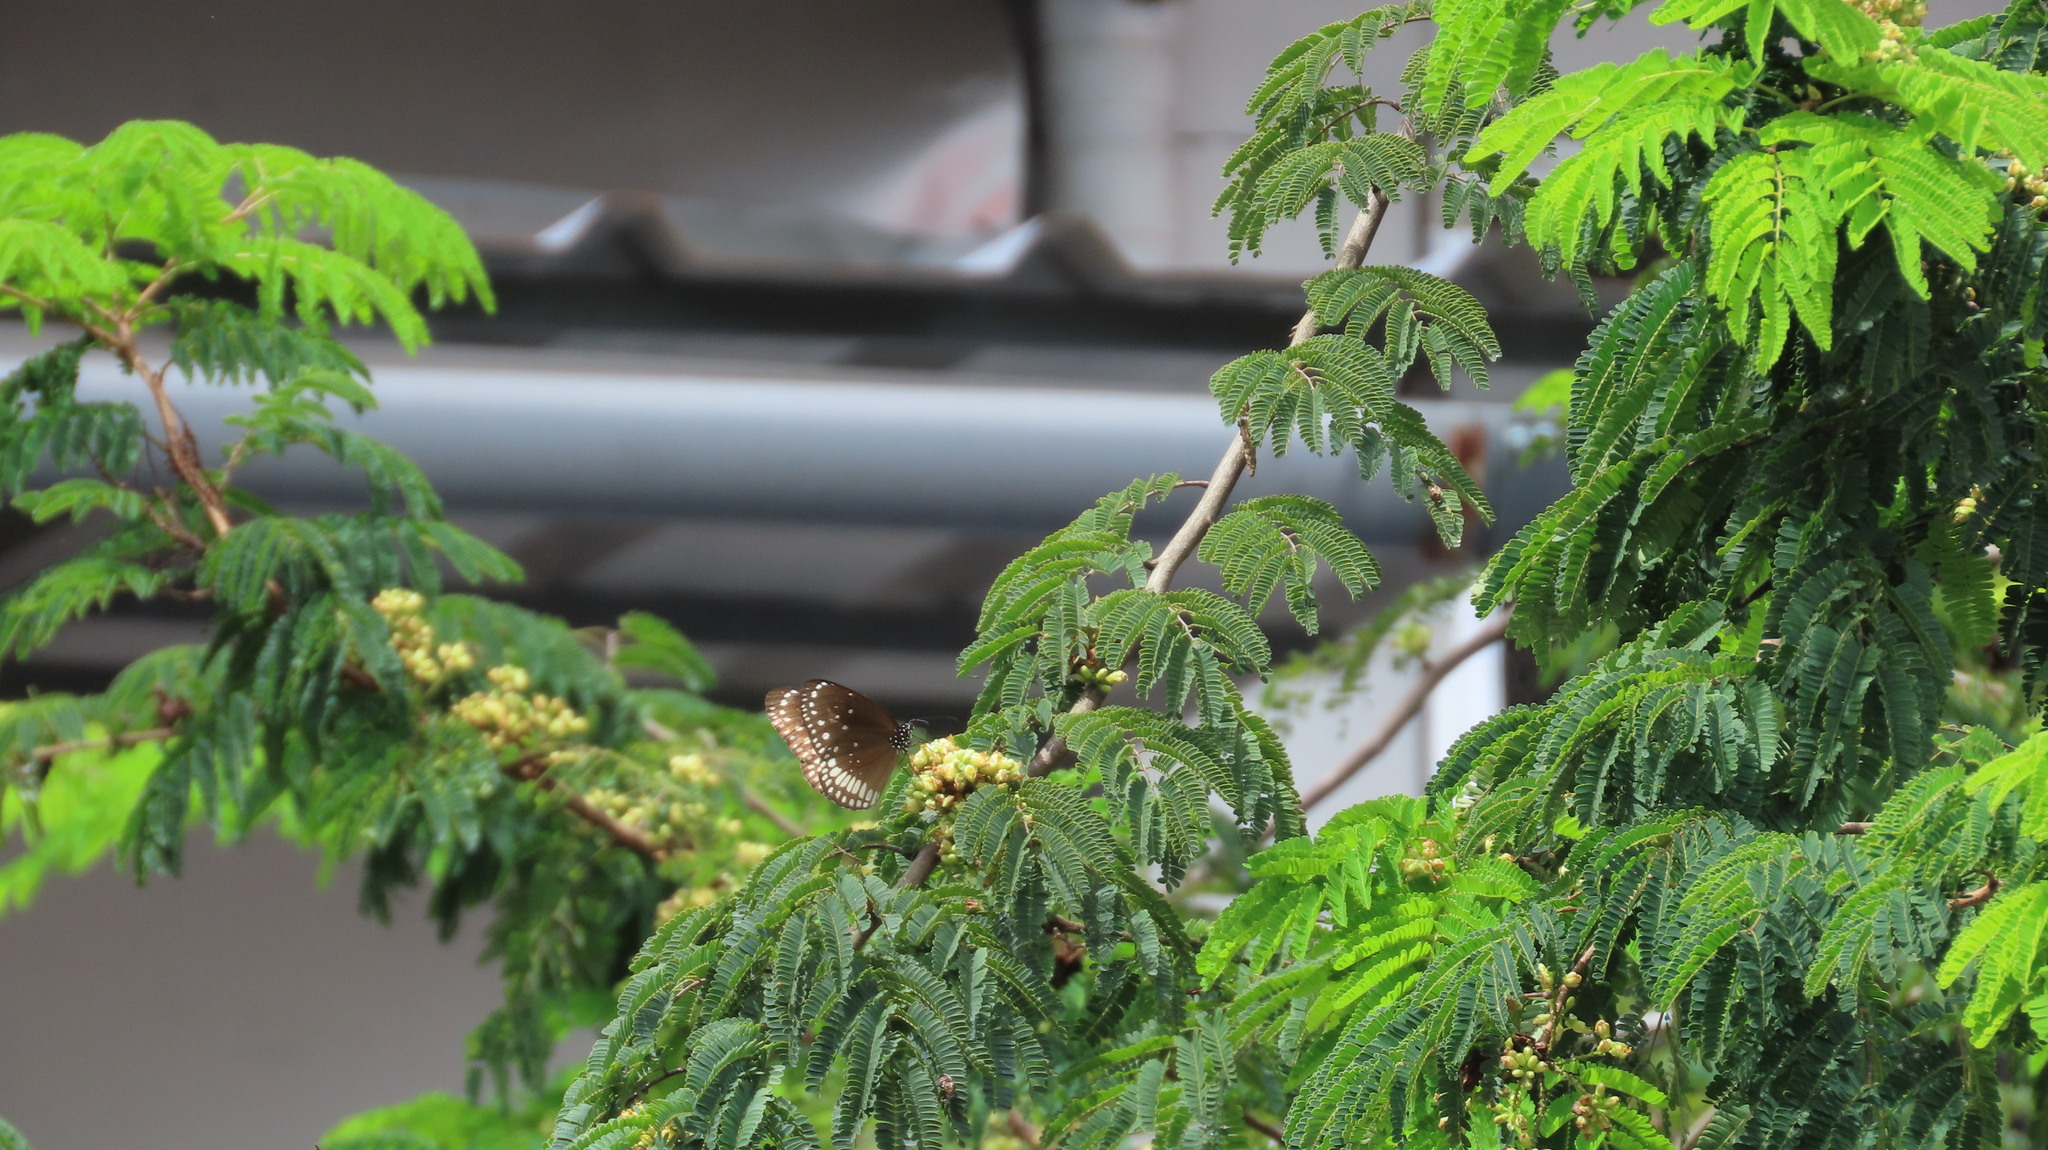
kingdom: Animalia
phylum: Arthropoda
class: Insecta
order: Lepidoptera
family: Nymphalidae
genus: Euploea
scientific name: Euploea core
